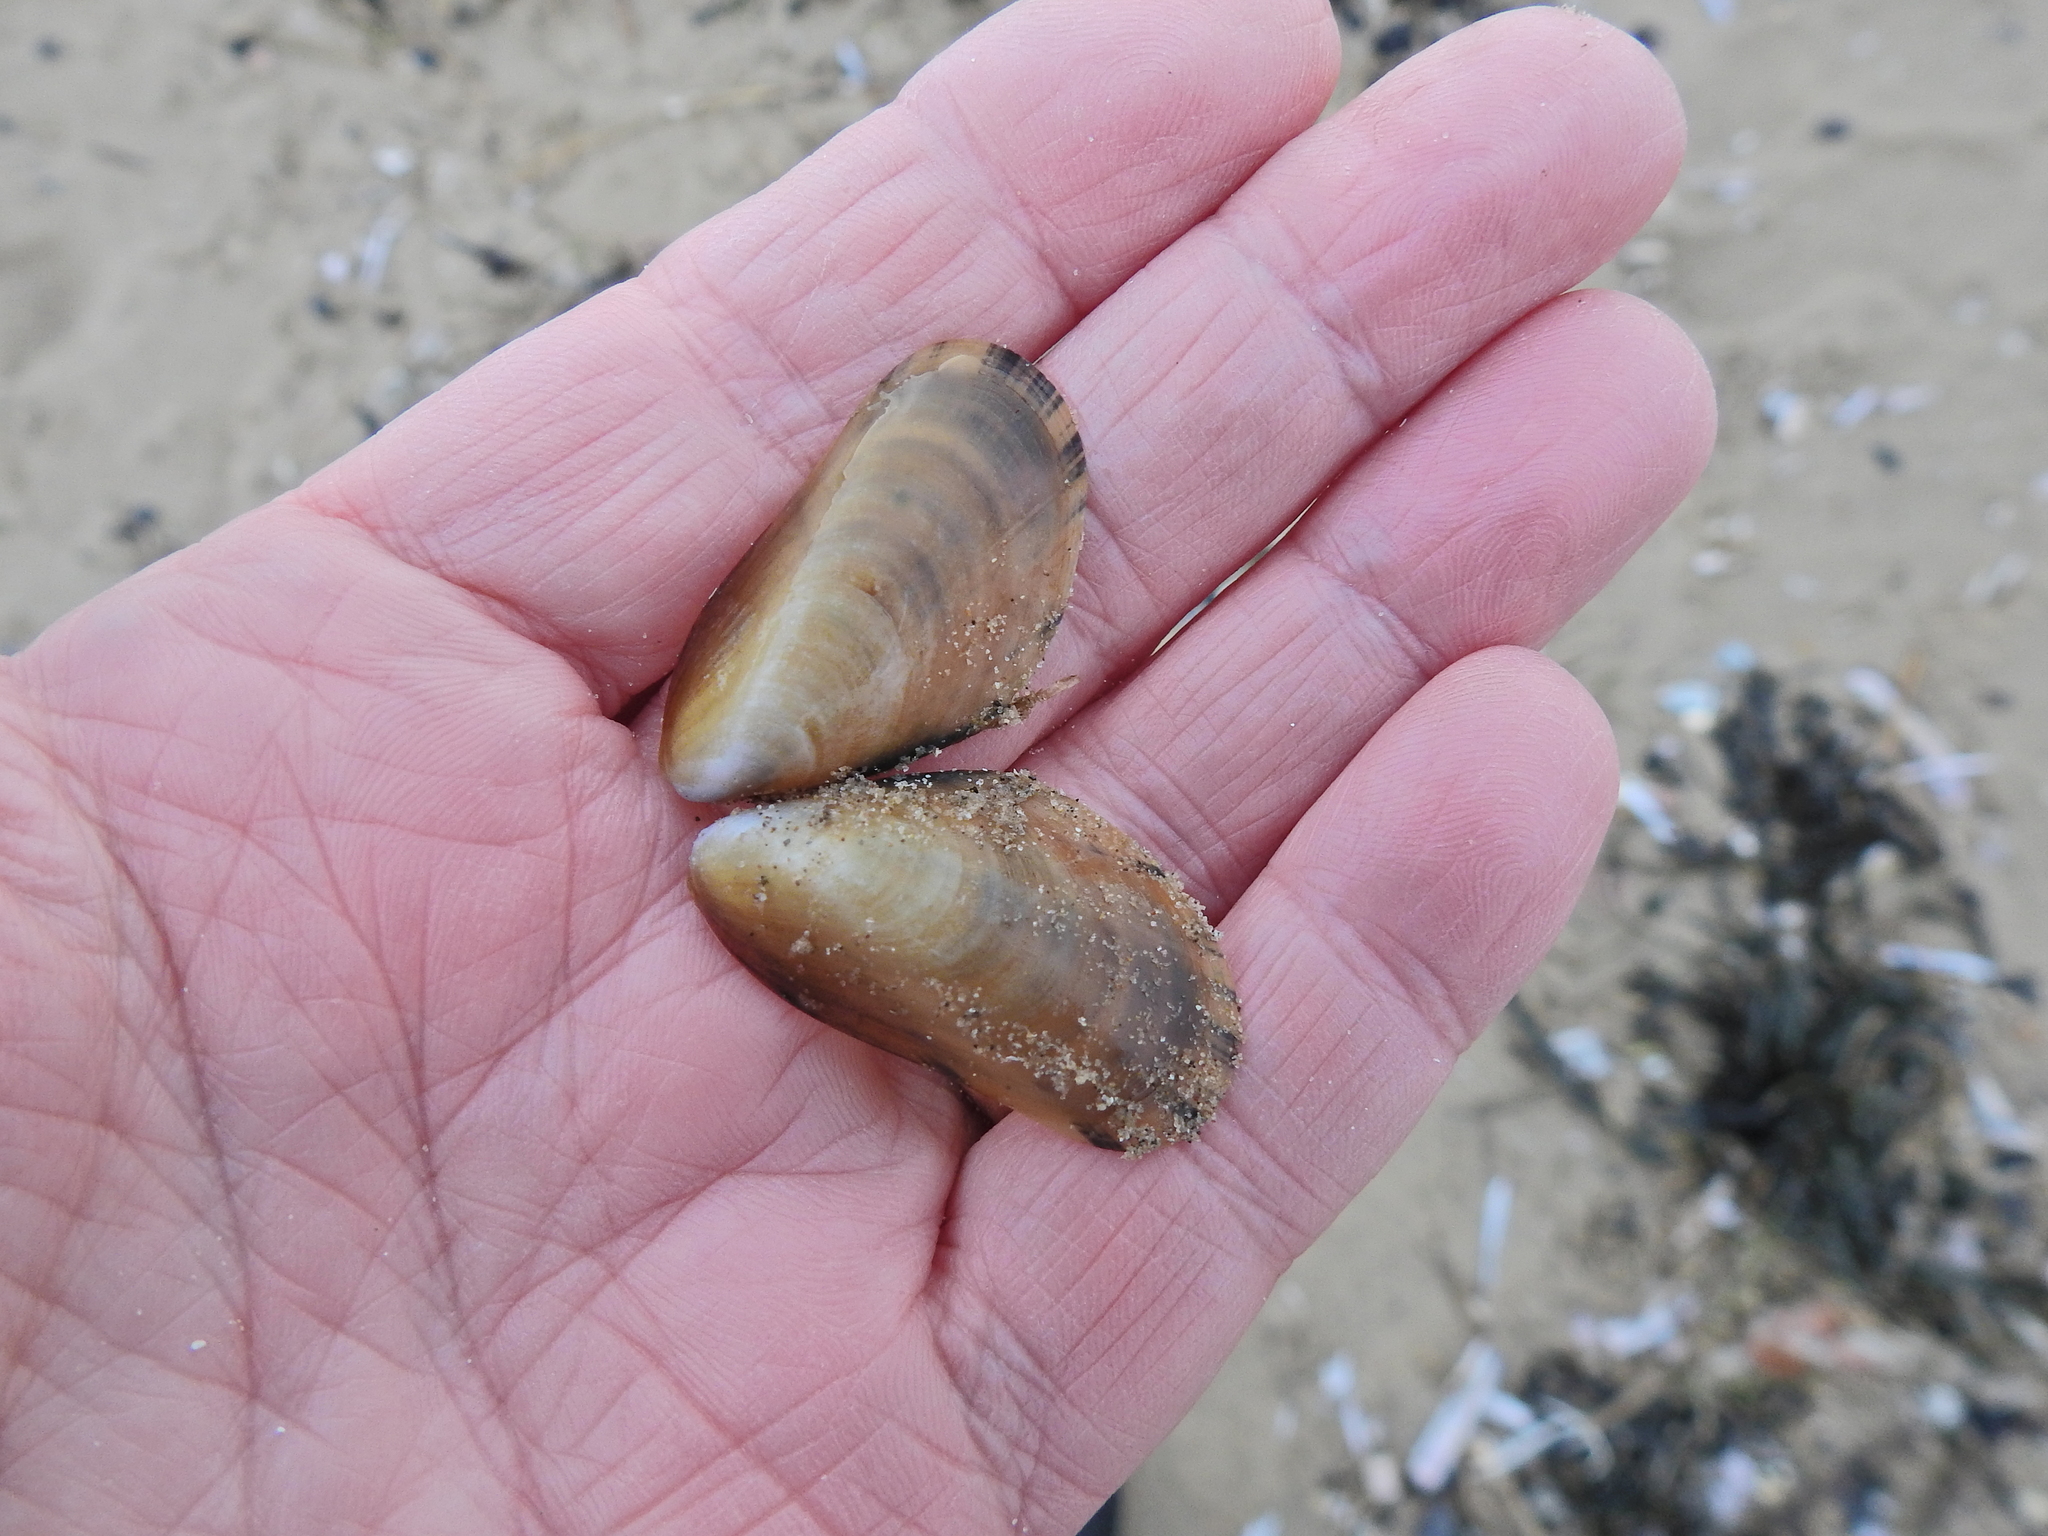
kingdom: Animalia
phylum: Mollusca
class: Bivalvia
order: Mytilida
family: Mytilidae
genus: Mytilus
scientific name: Mytilus edulis
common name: Blue mussel
